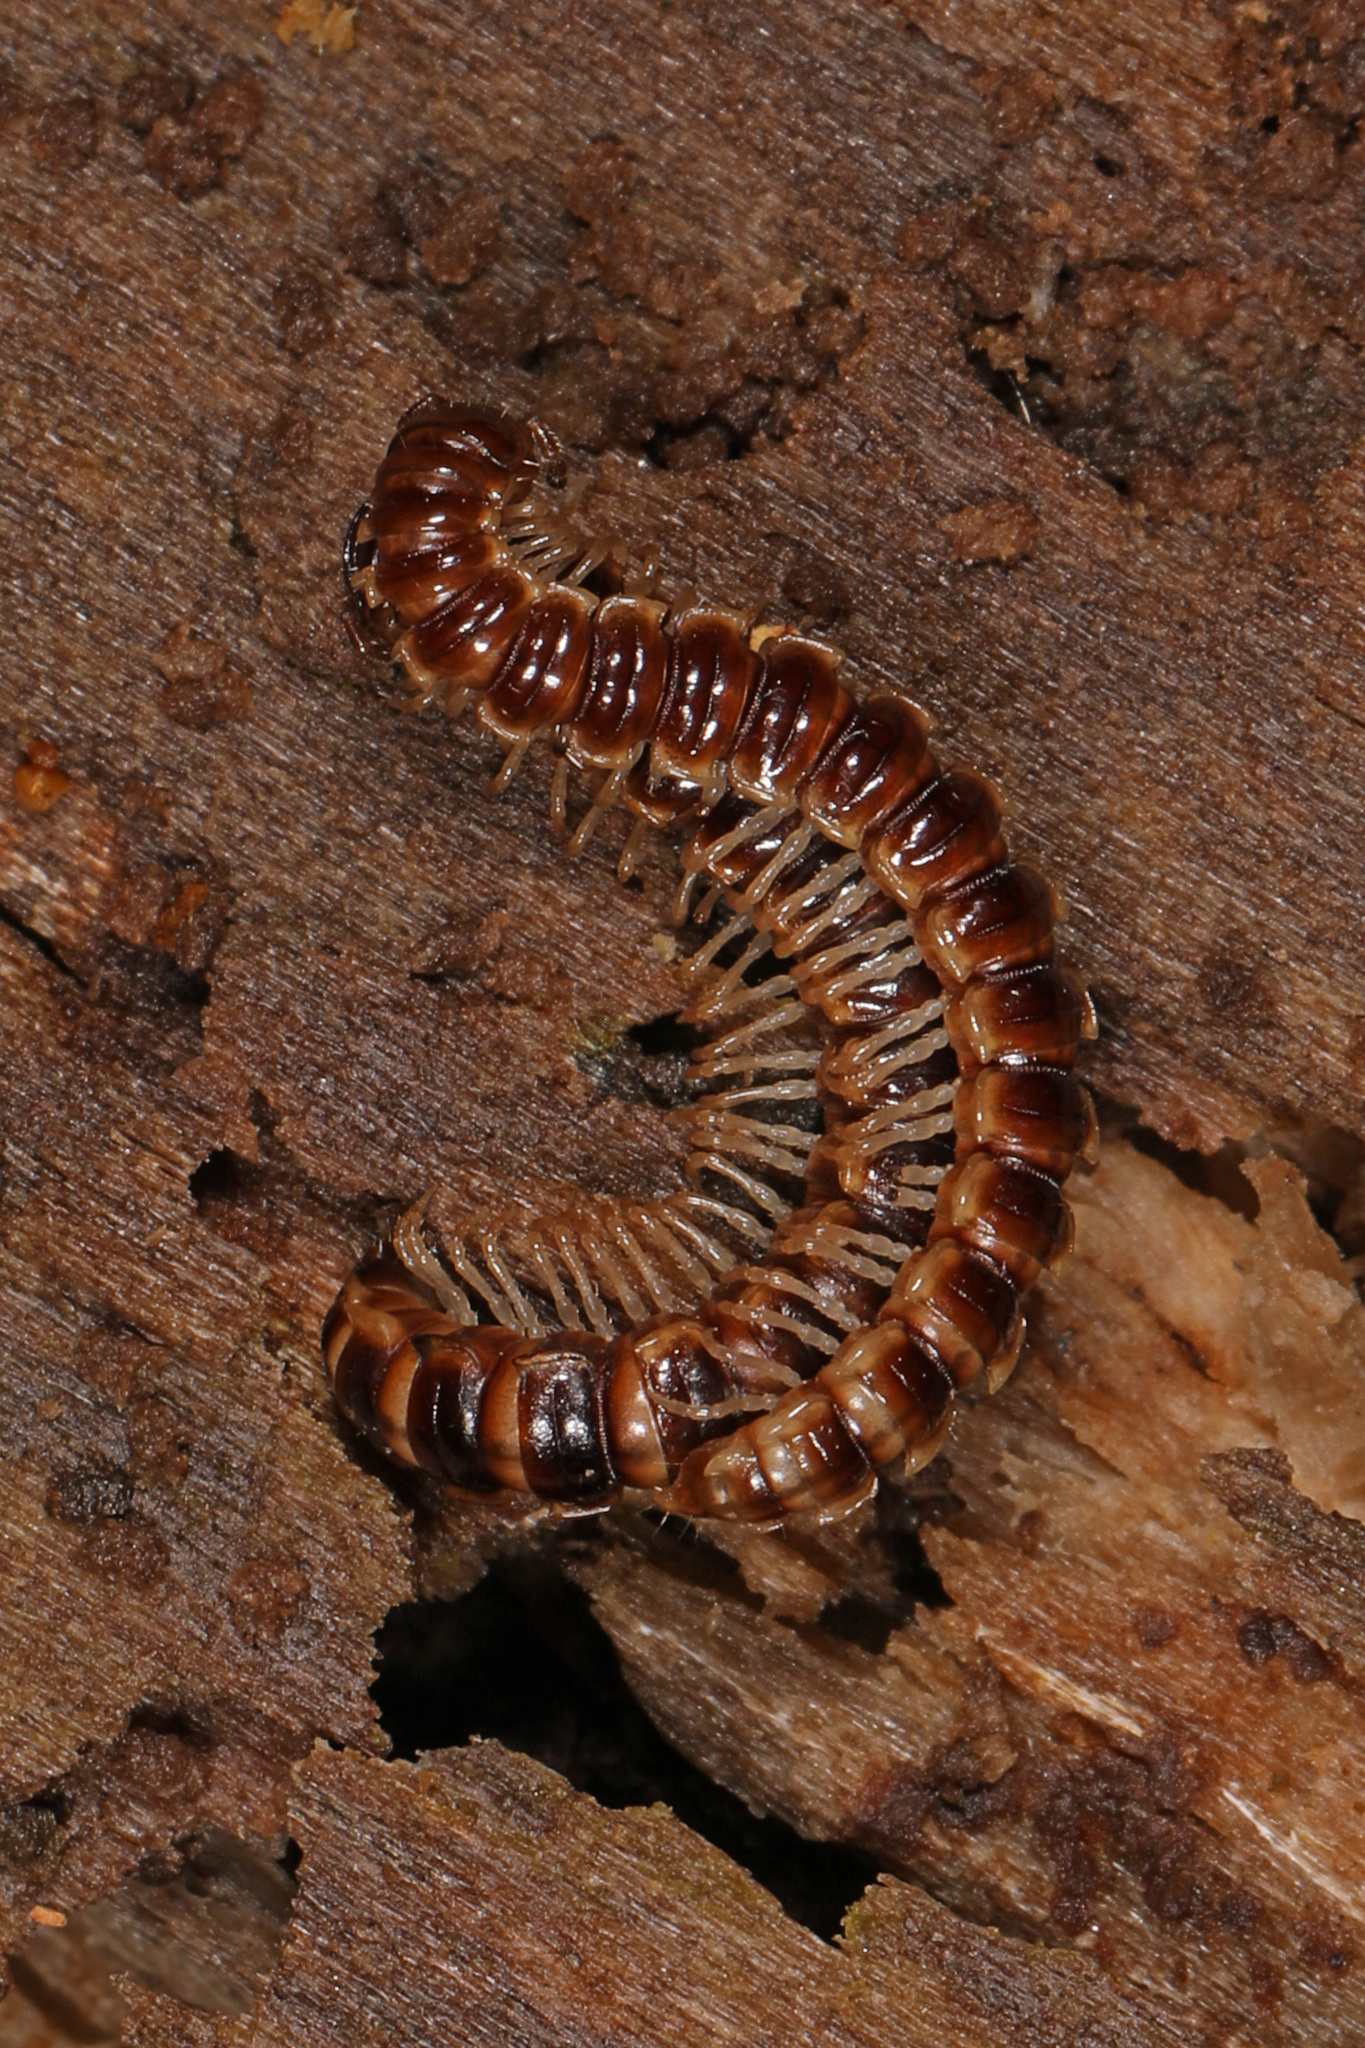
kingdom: Animalia
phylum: Arthropoda
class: Diplopoda
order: Polydesmida
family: Paradoxosomatidae
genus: Oxidus
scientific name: Oxidus gracilis
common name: Greenhouse millipede
